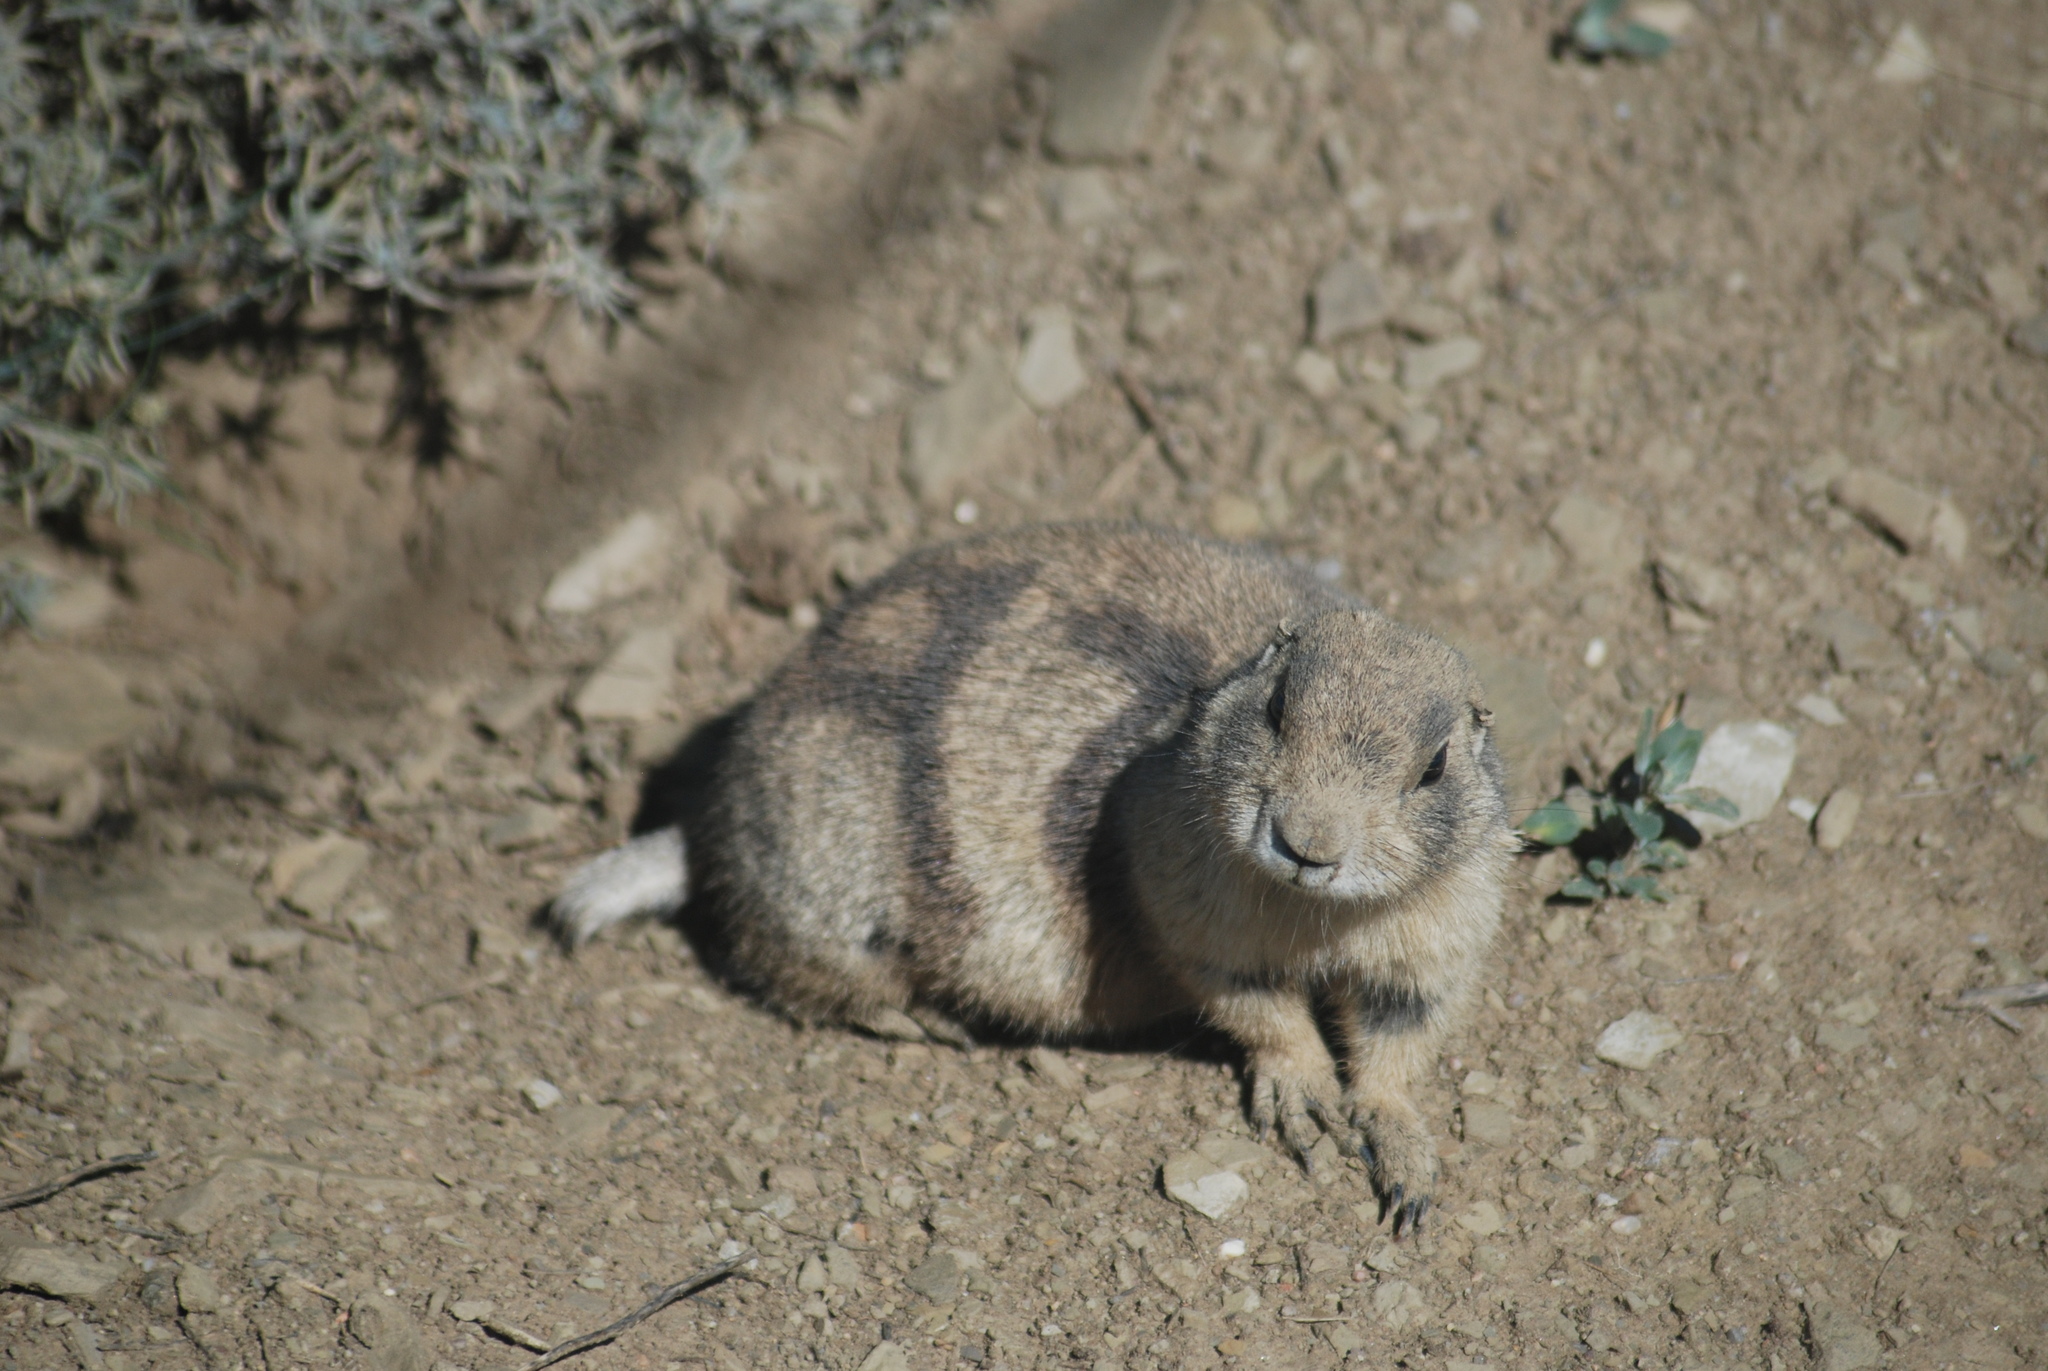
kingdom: Animalia
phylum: Chordata
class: Mammalia
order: Rodentia
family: Sciuridae
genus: Cynomys
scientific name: Cynomys leucurus
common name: White-tailed prairie dog
